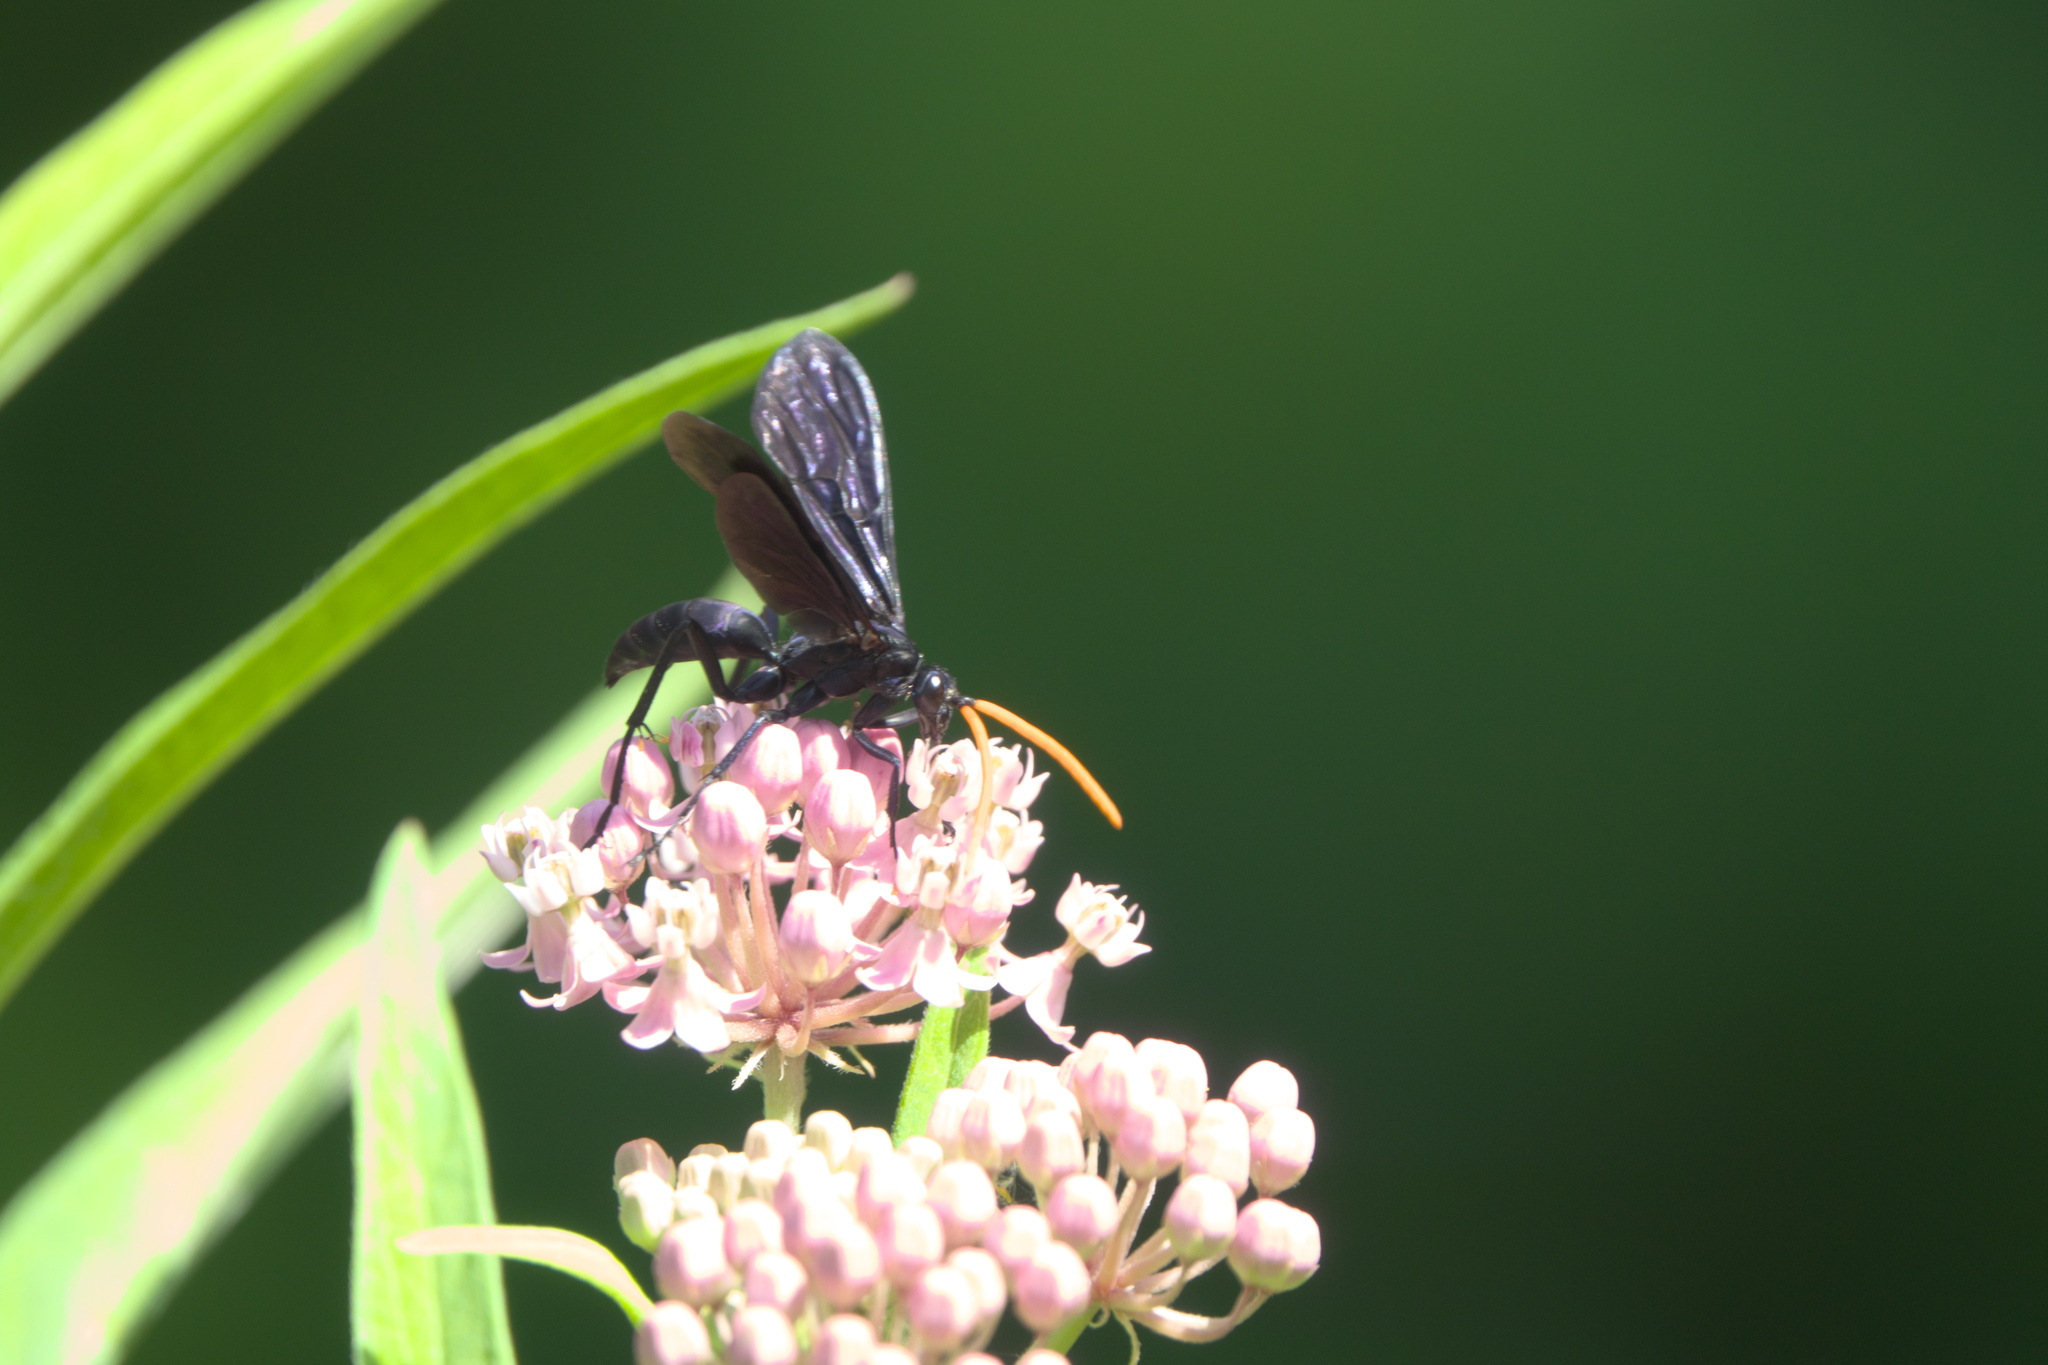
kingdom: Animalia
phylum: Arthropoda
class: Insecta
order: Hymenoptera
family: Pompilidae
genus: Pepsis
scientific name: Pepsis menechma
